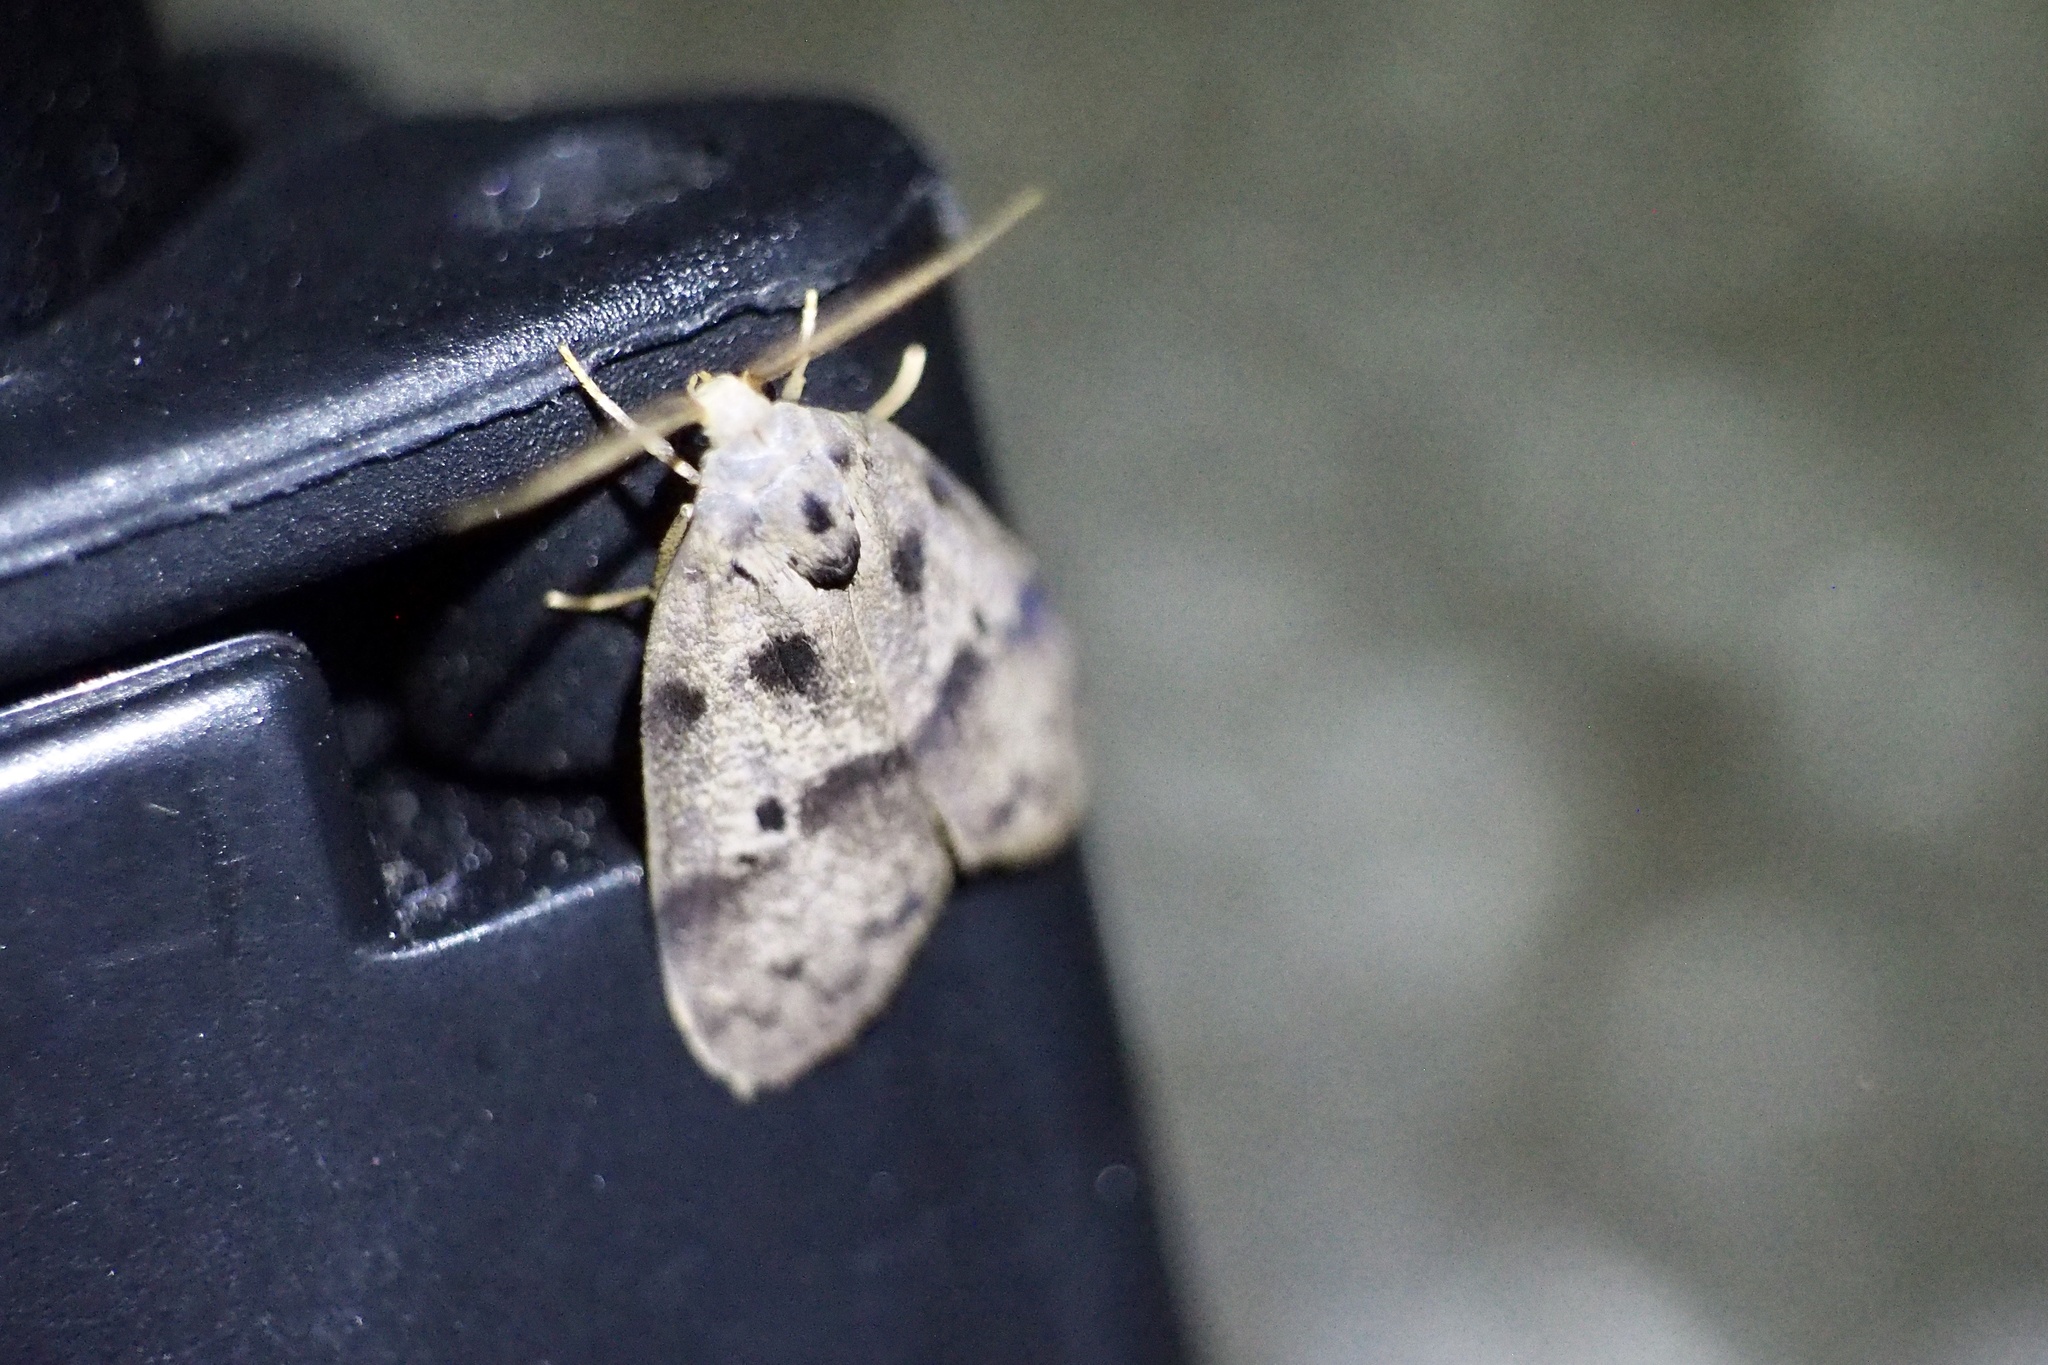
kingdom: Animalia
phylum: Arthropoda
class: Insecta
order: Lepidoptera
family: Erebidae
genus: Eugoa
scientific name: Eugoa grisea
